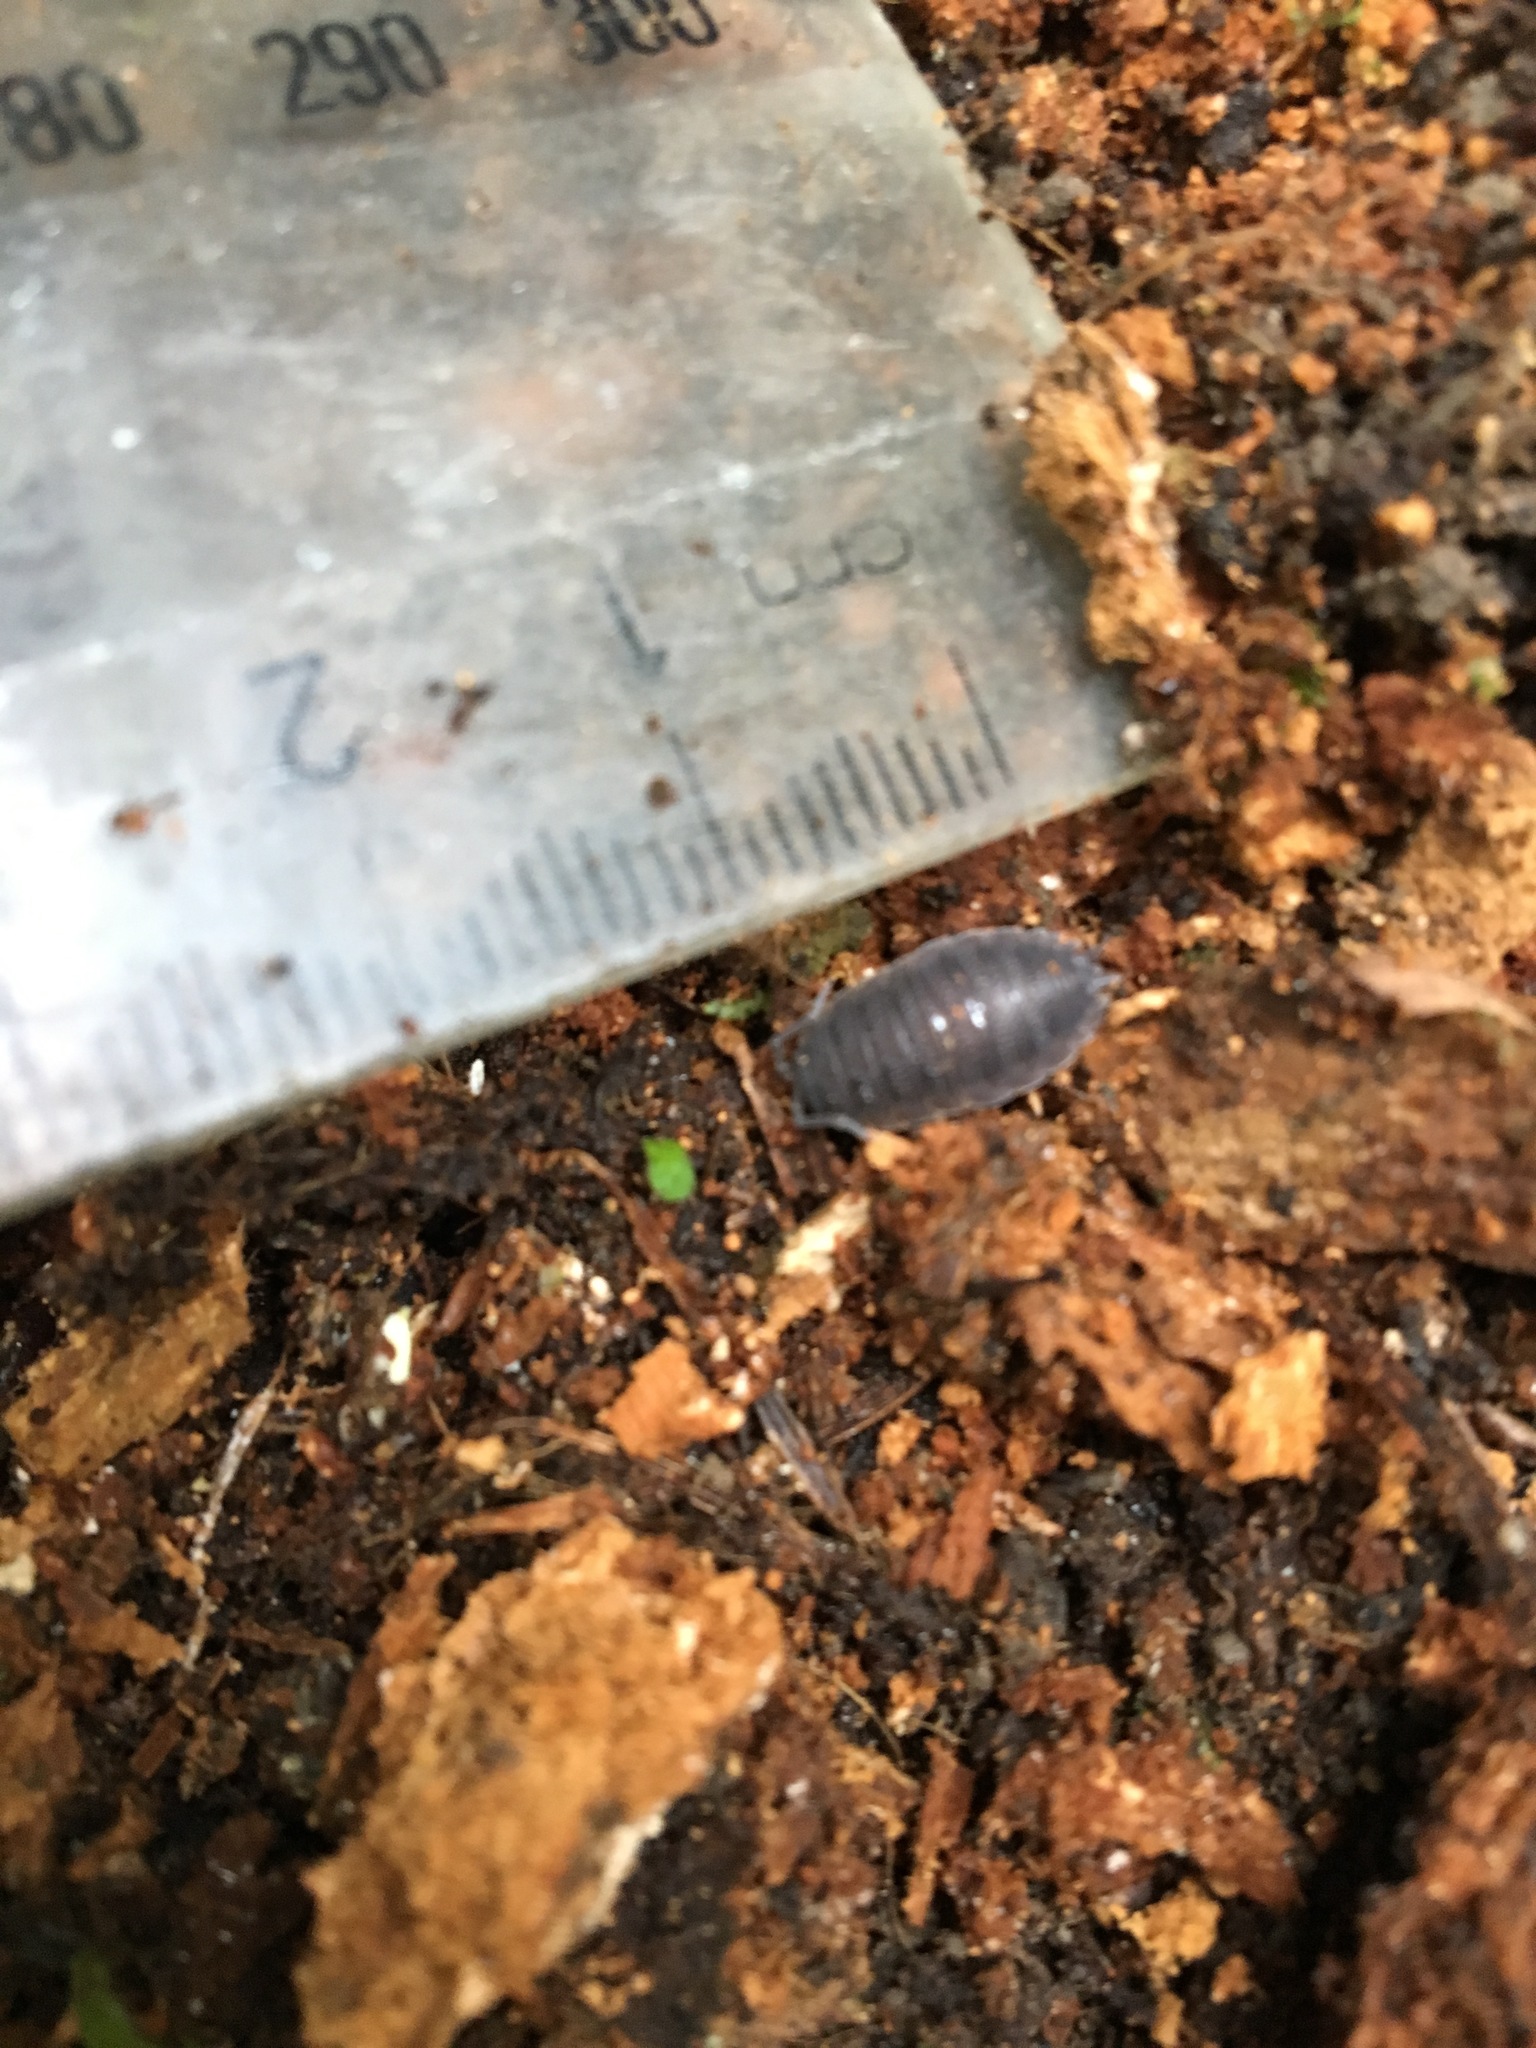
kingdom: Animalia
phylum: Arthropoda
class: Malacostraca
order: Isopoda
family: Porcellionidae
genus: Porcellio
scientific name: Porcellio scaber
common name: Common rough woodlouse
